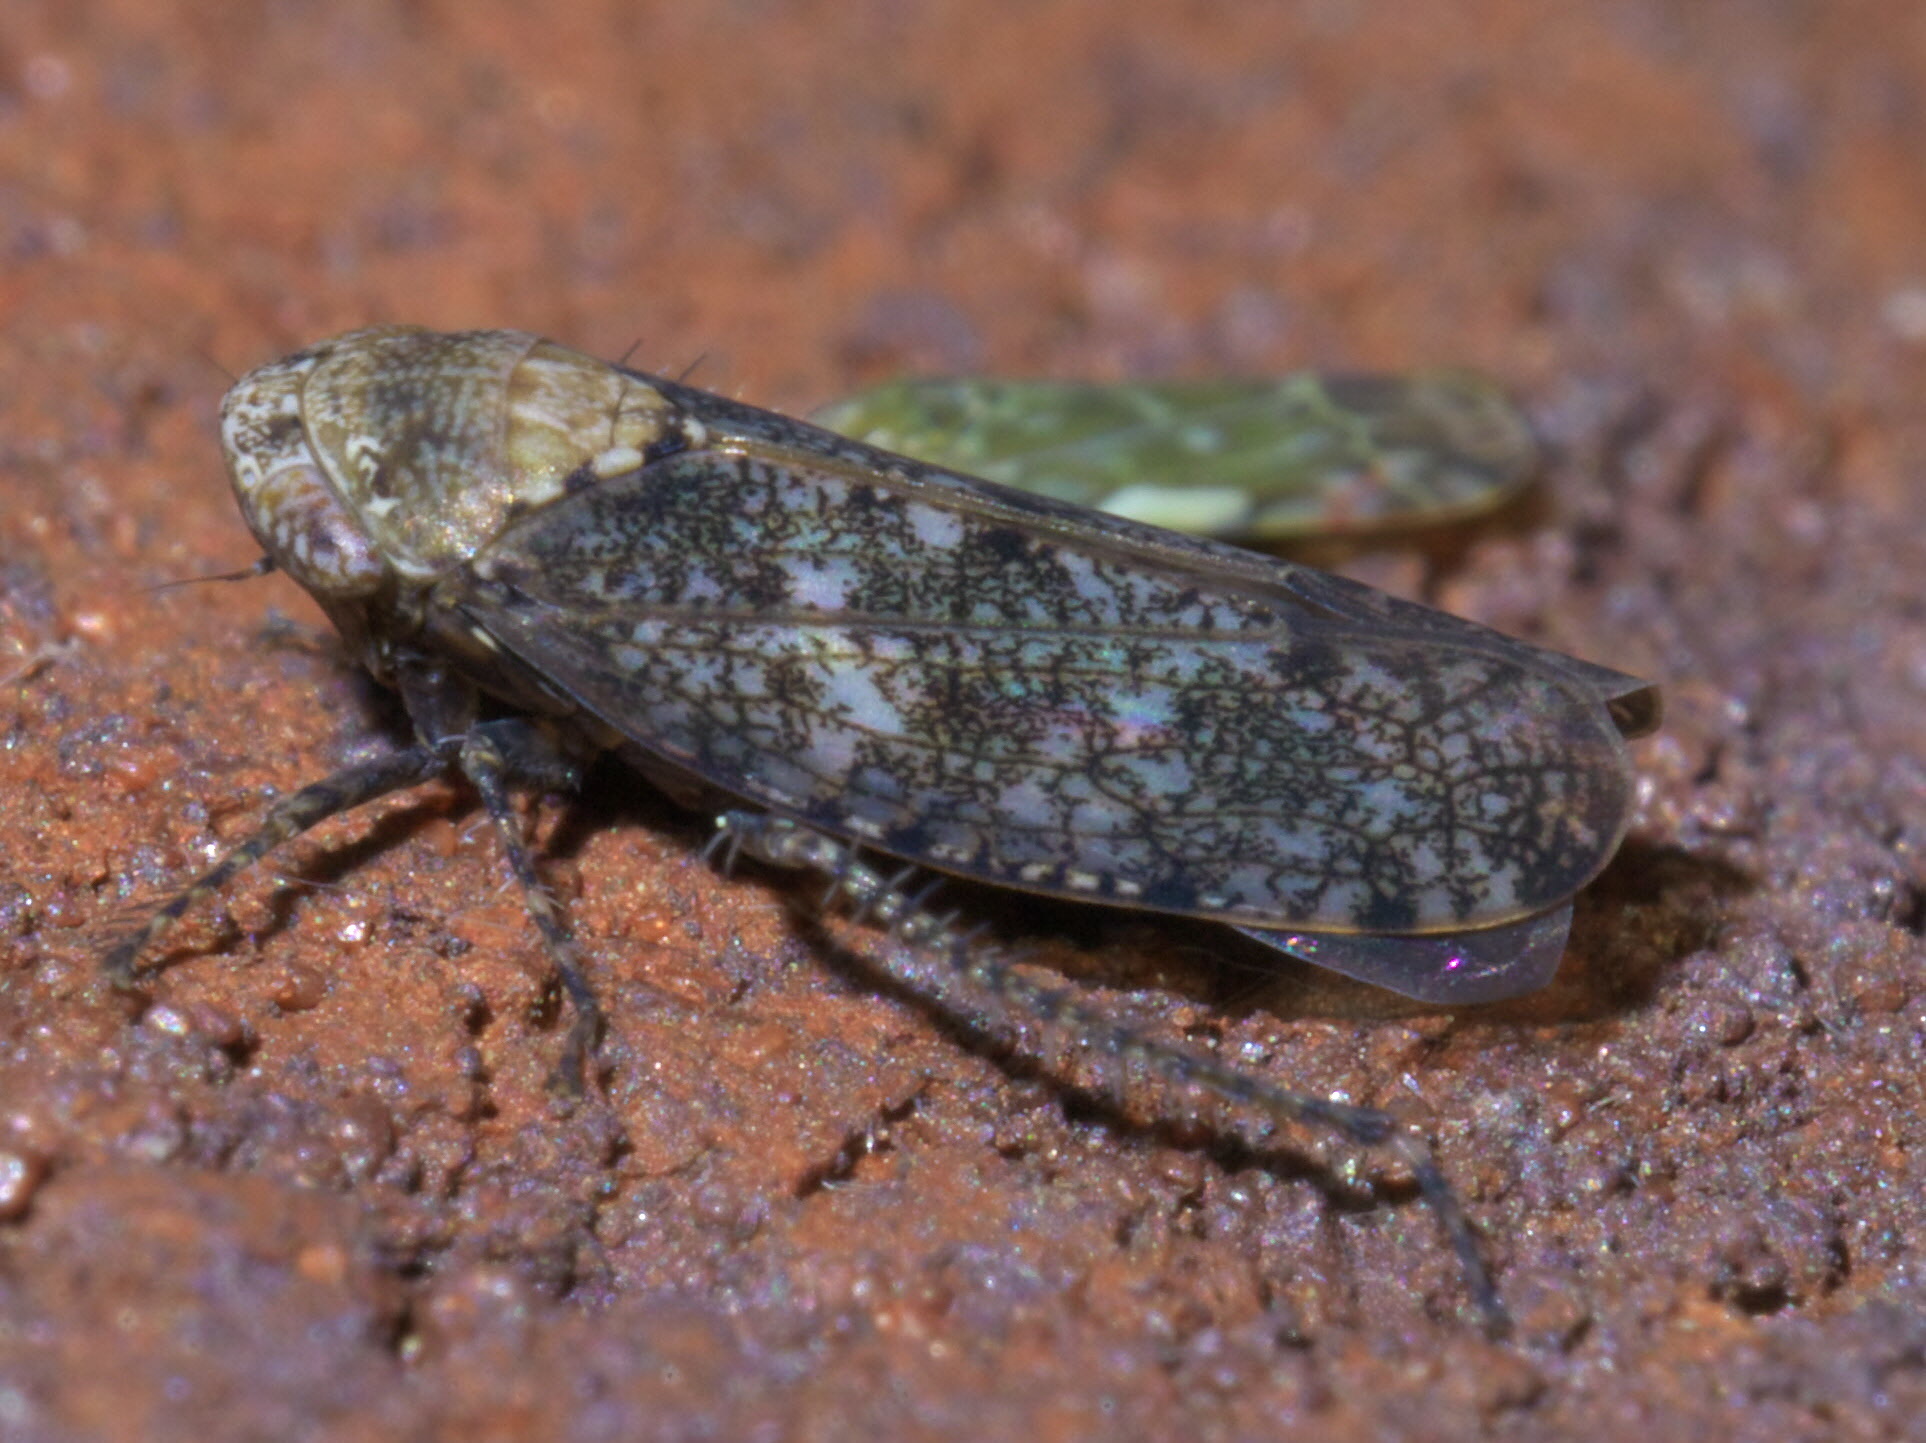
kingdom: Animalia
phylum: Arthropoda
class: Insecta
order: Hemiptera
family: Cicadellidae
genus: Paraphlepsius
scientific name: Paraphlepsius collitus
